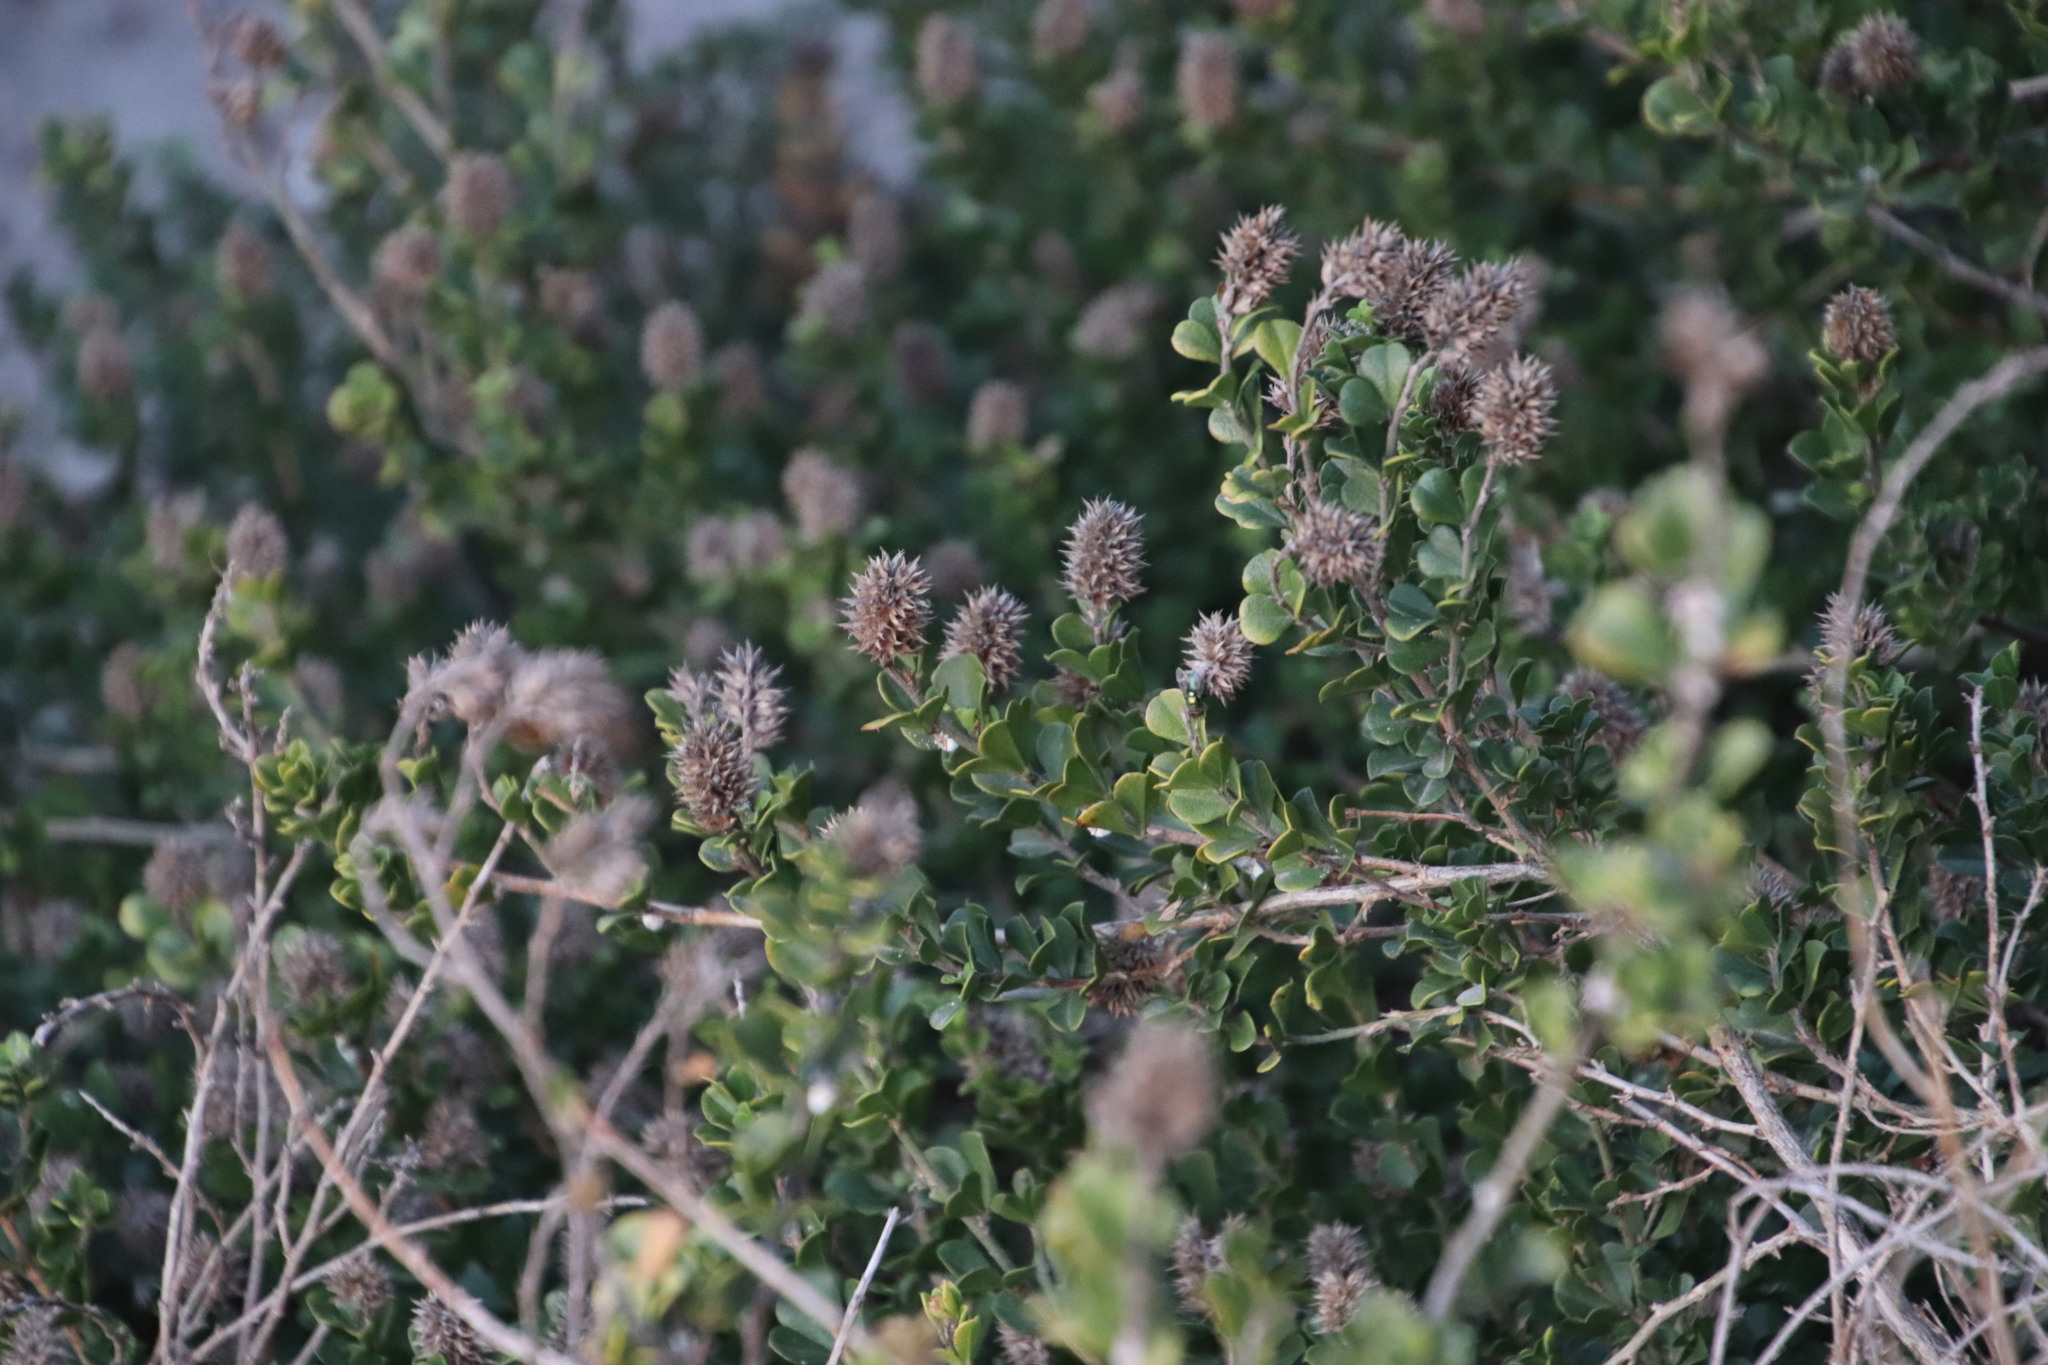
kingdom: Plantae
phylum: Tracheophyta
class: Magnoliopsida
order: Fabales
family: Fabaceae
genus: Psoralea
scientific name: Psoralea bracteolata
